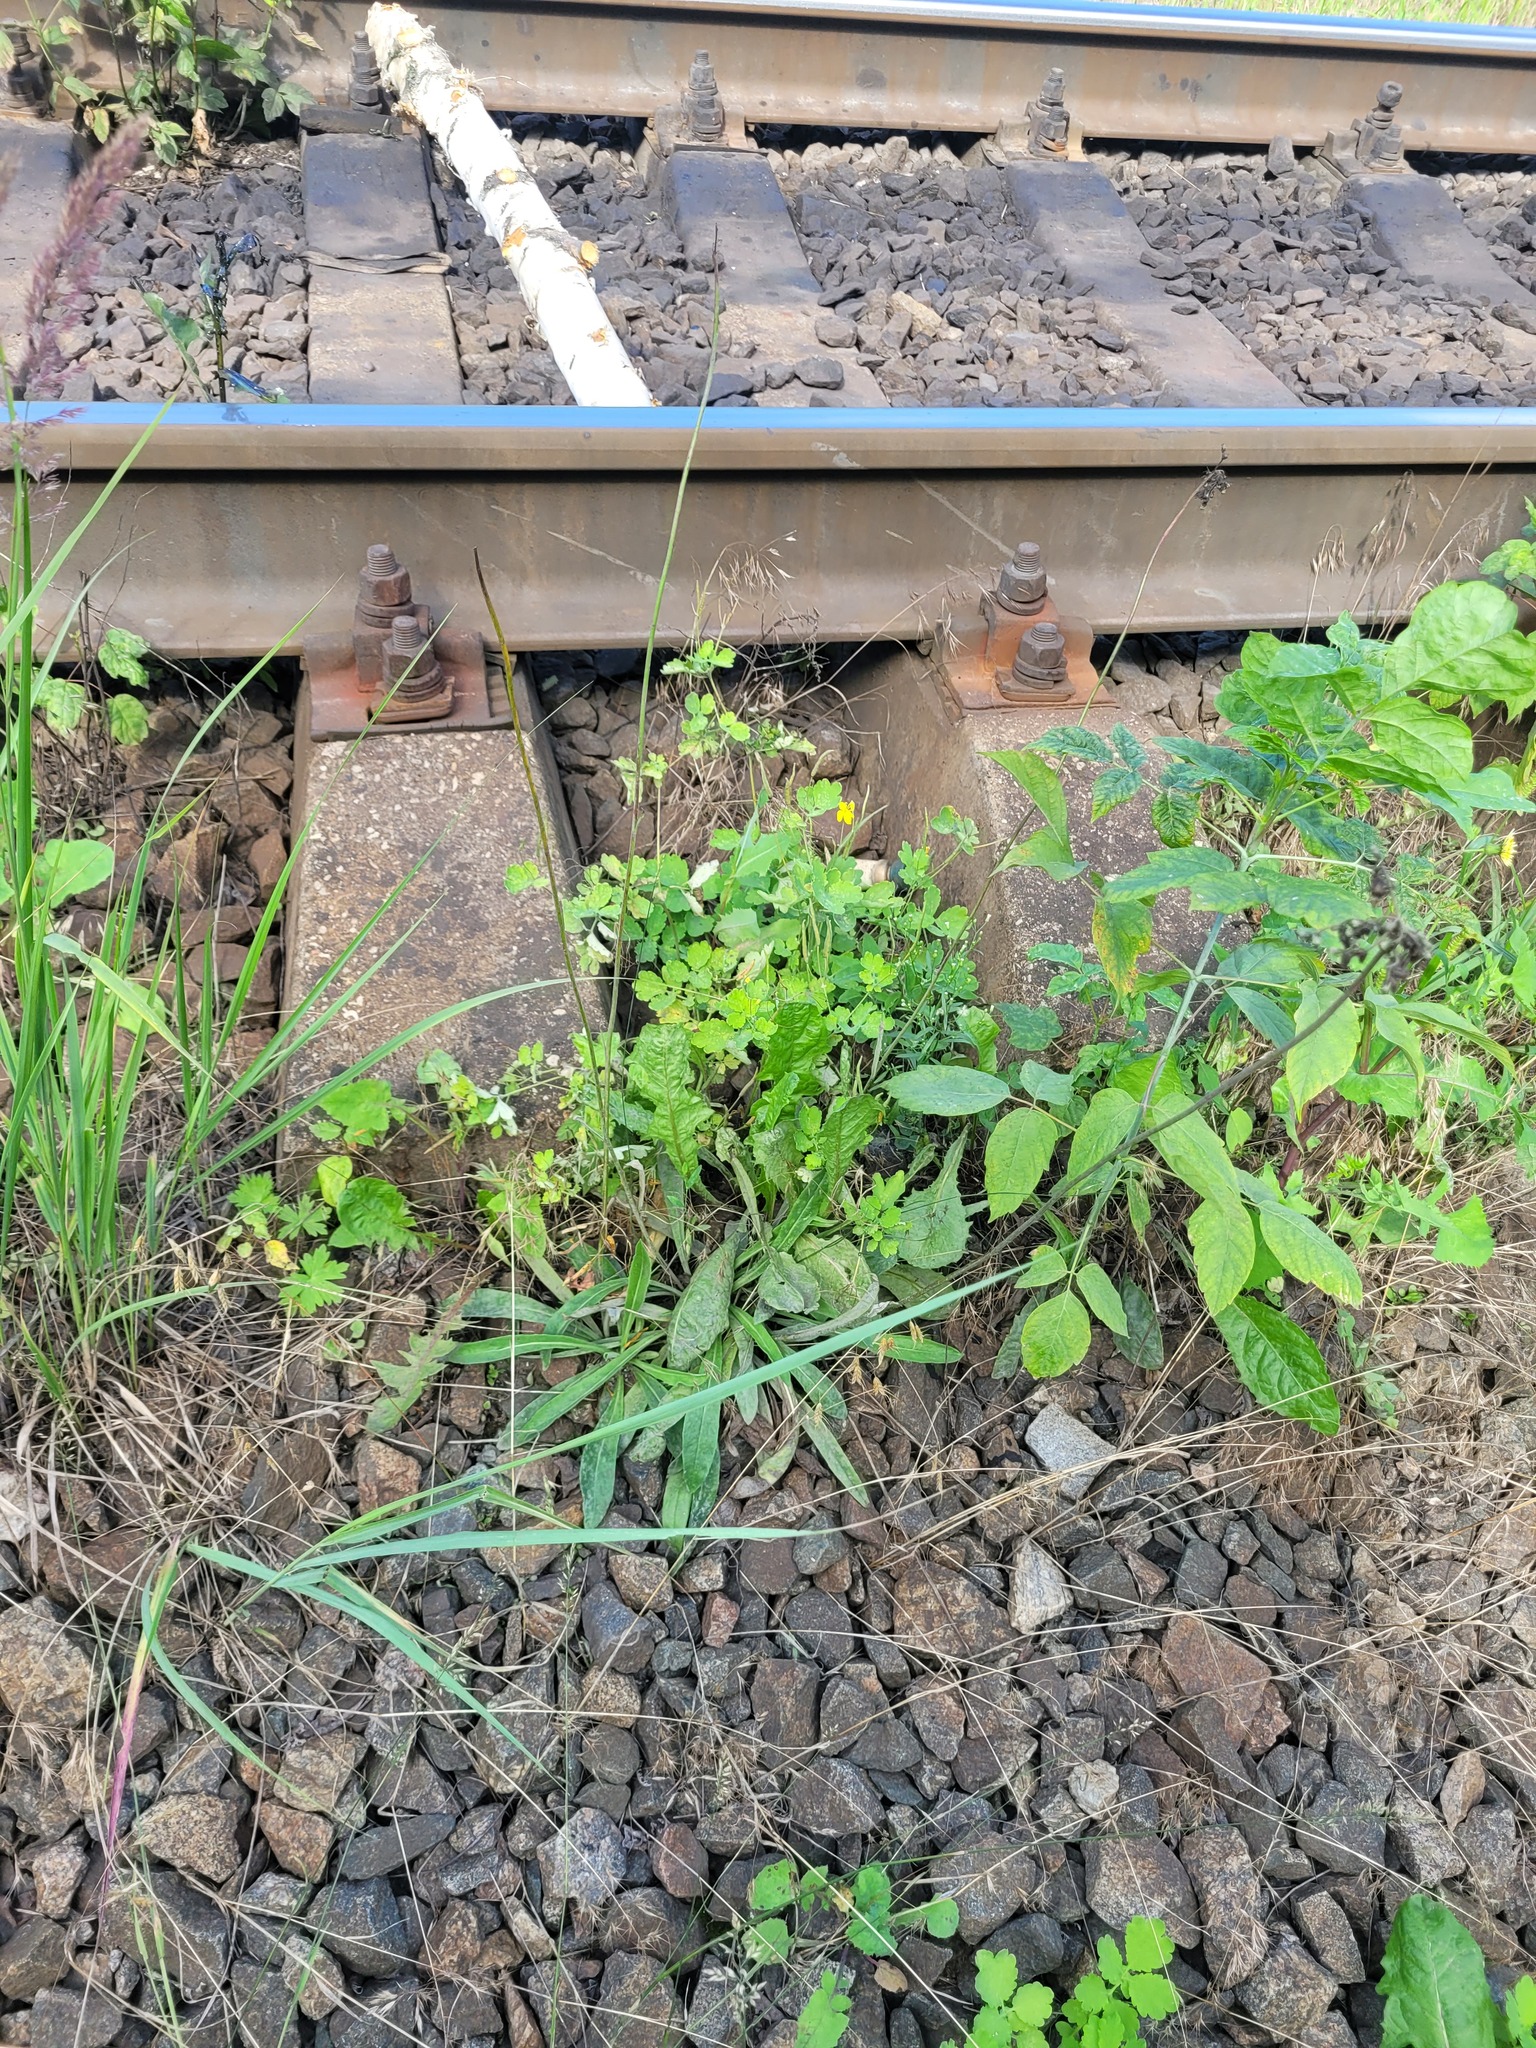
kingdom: Plantae
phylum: Tracheophyta
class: Magnoliopsida
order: Ranunculales
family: Papaveraceae
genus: Chelidonium
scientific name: Chelidonium majus
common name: Greater celandine
